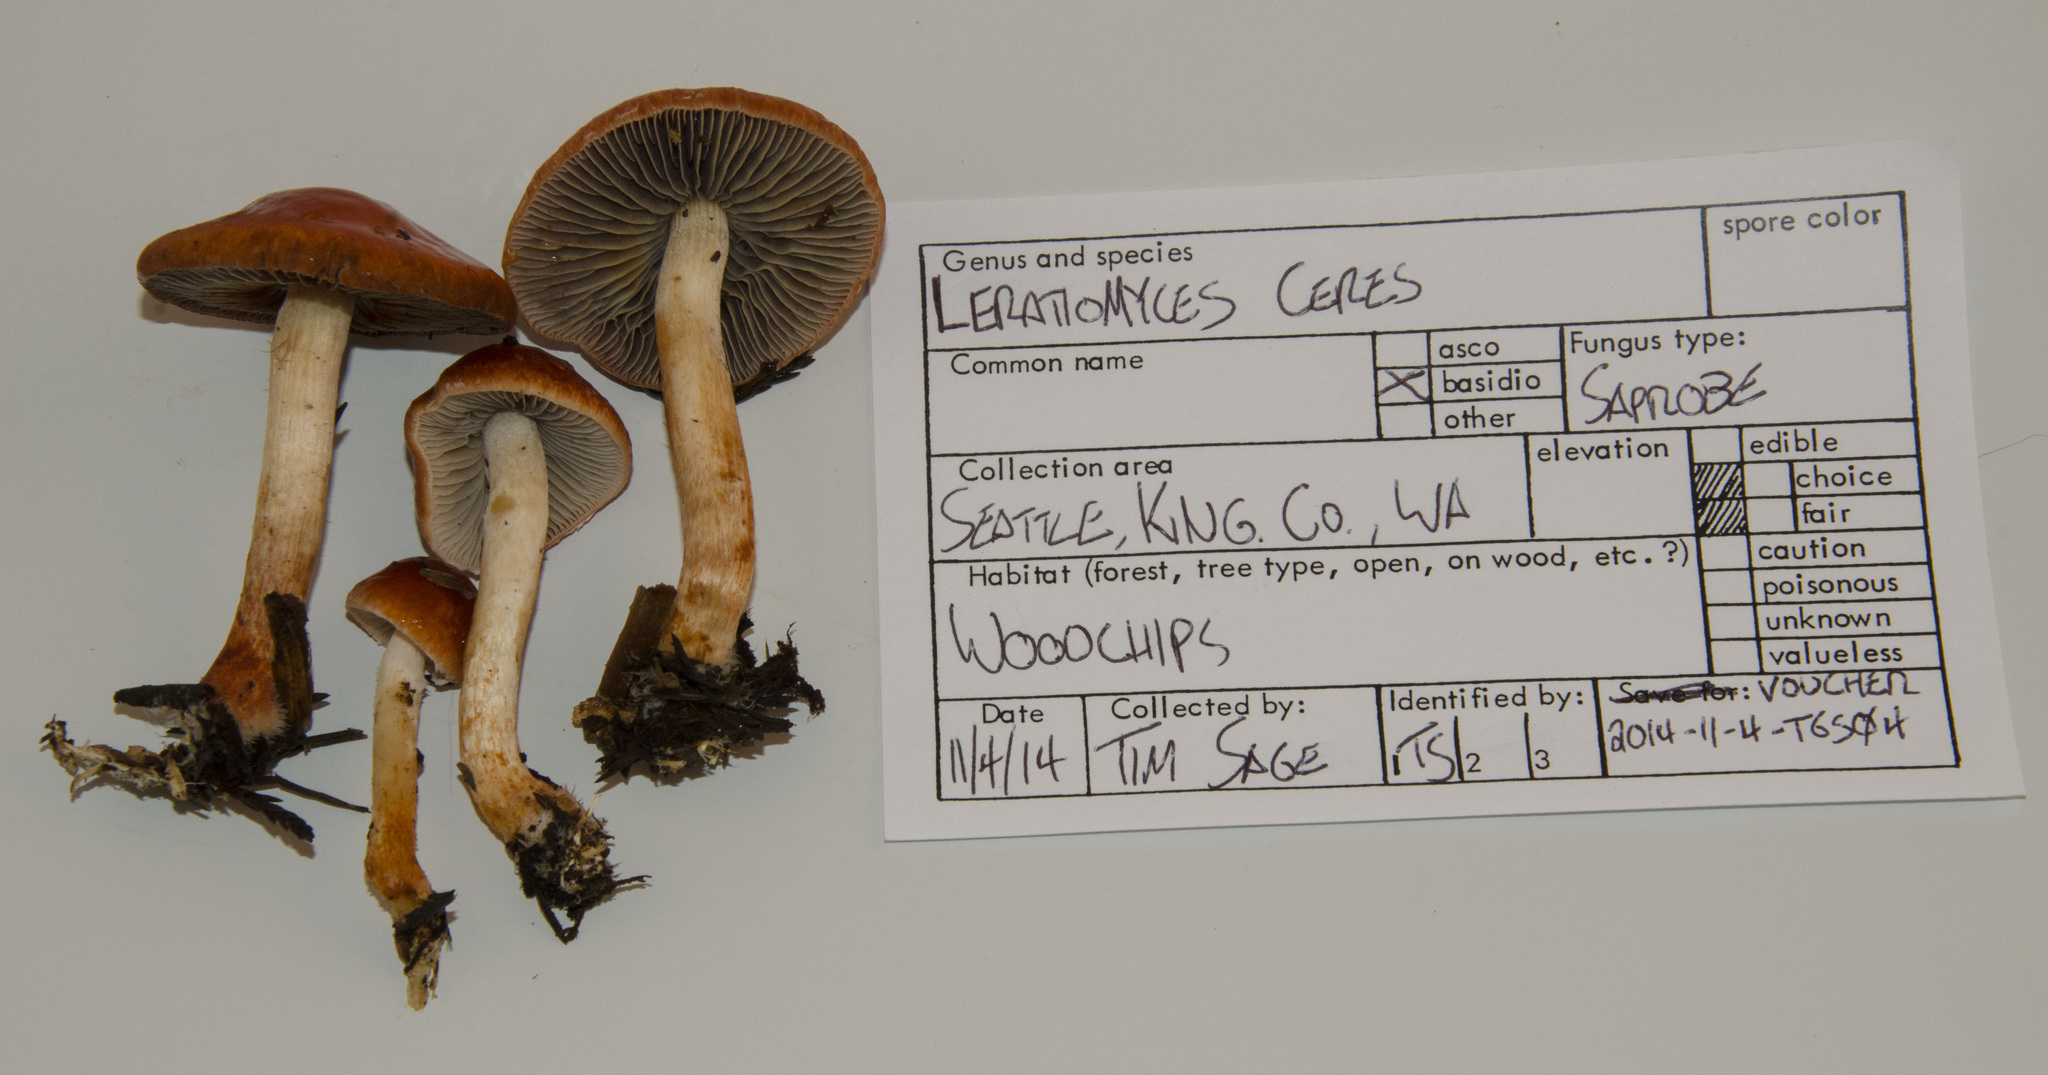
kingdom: Fungi
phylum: Basidiomycota
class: Agaricomycetes
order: Agaricales
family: Strophariaceae
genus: Leratiomyces
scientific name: Leratiomyces ceres
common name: Redlead roundhead
